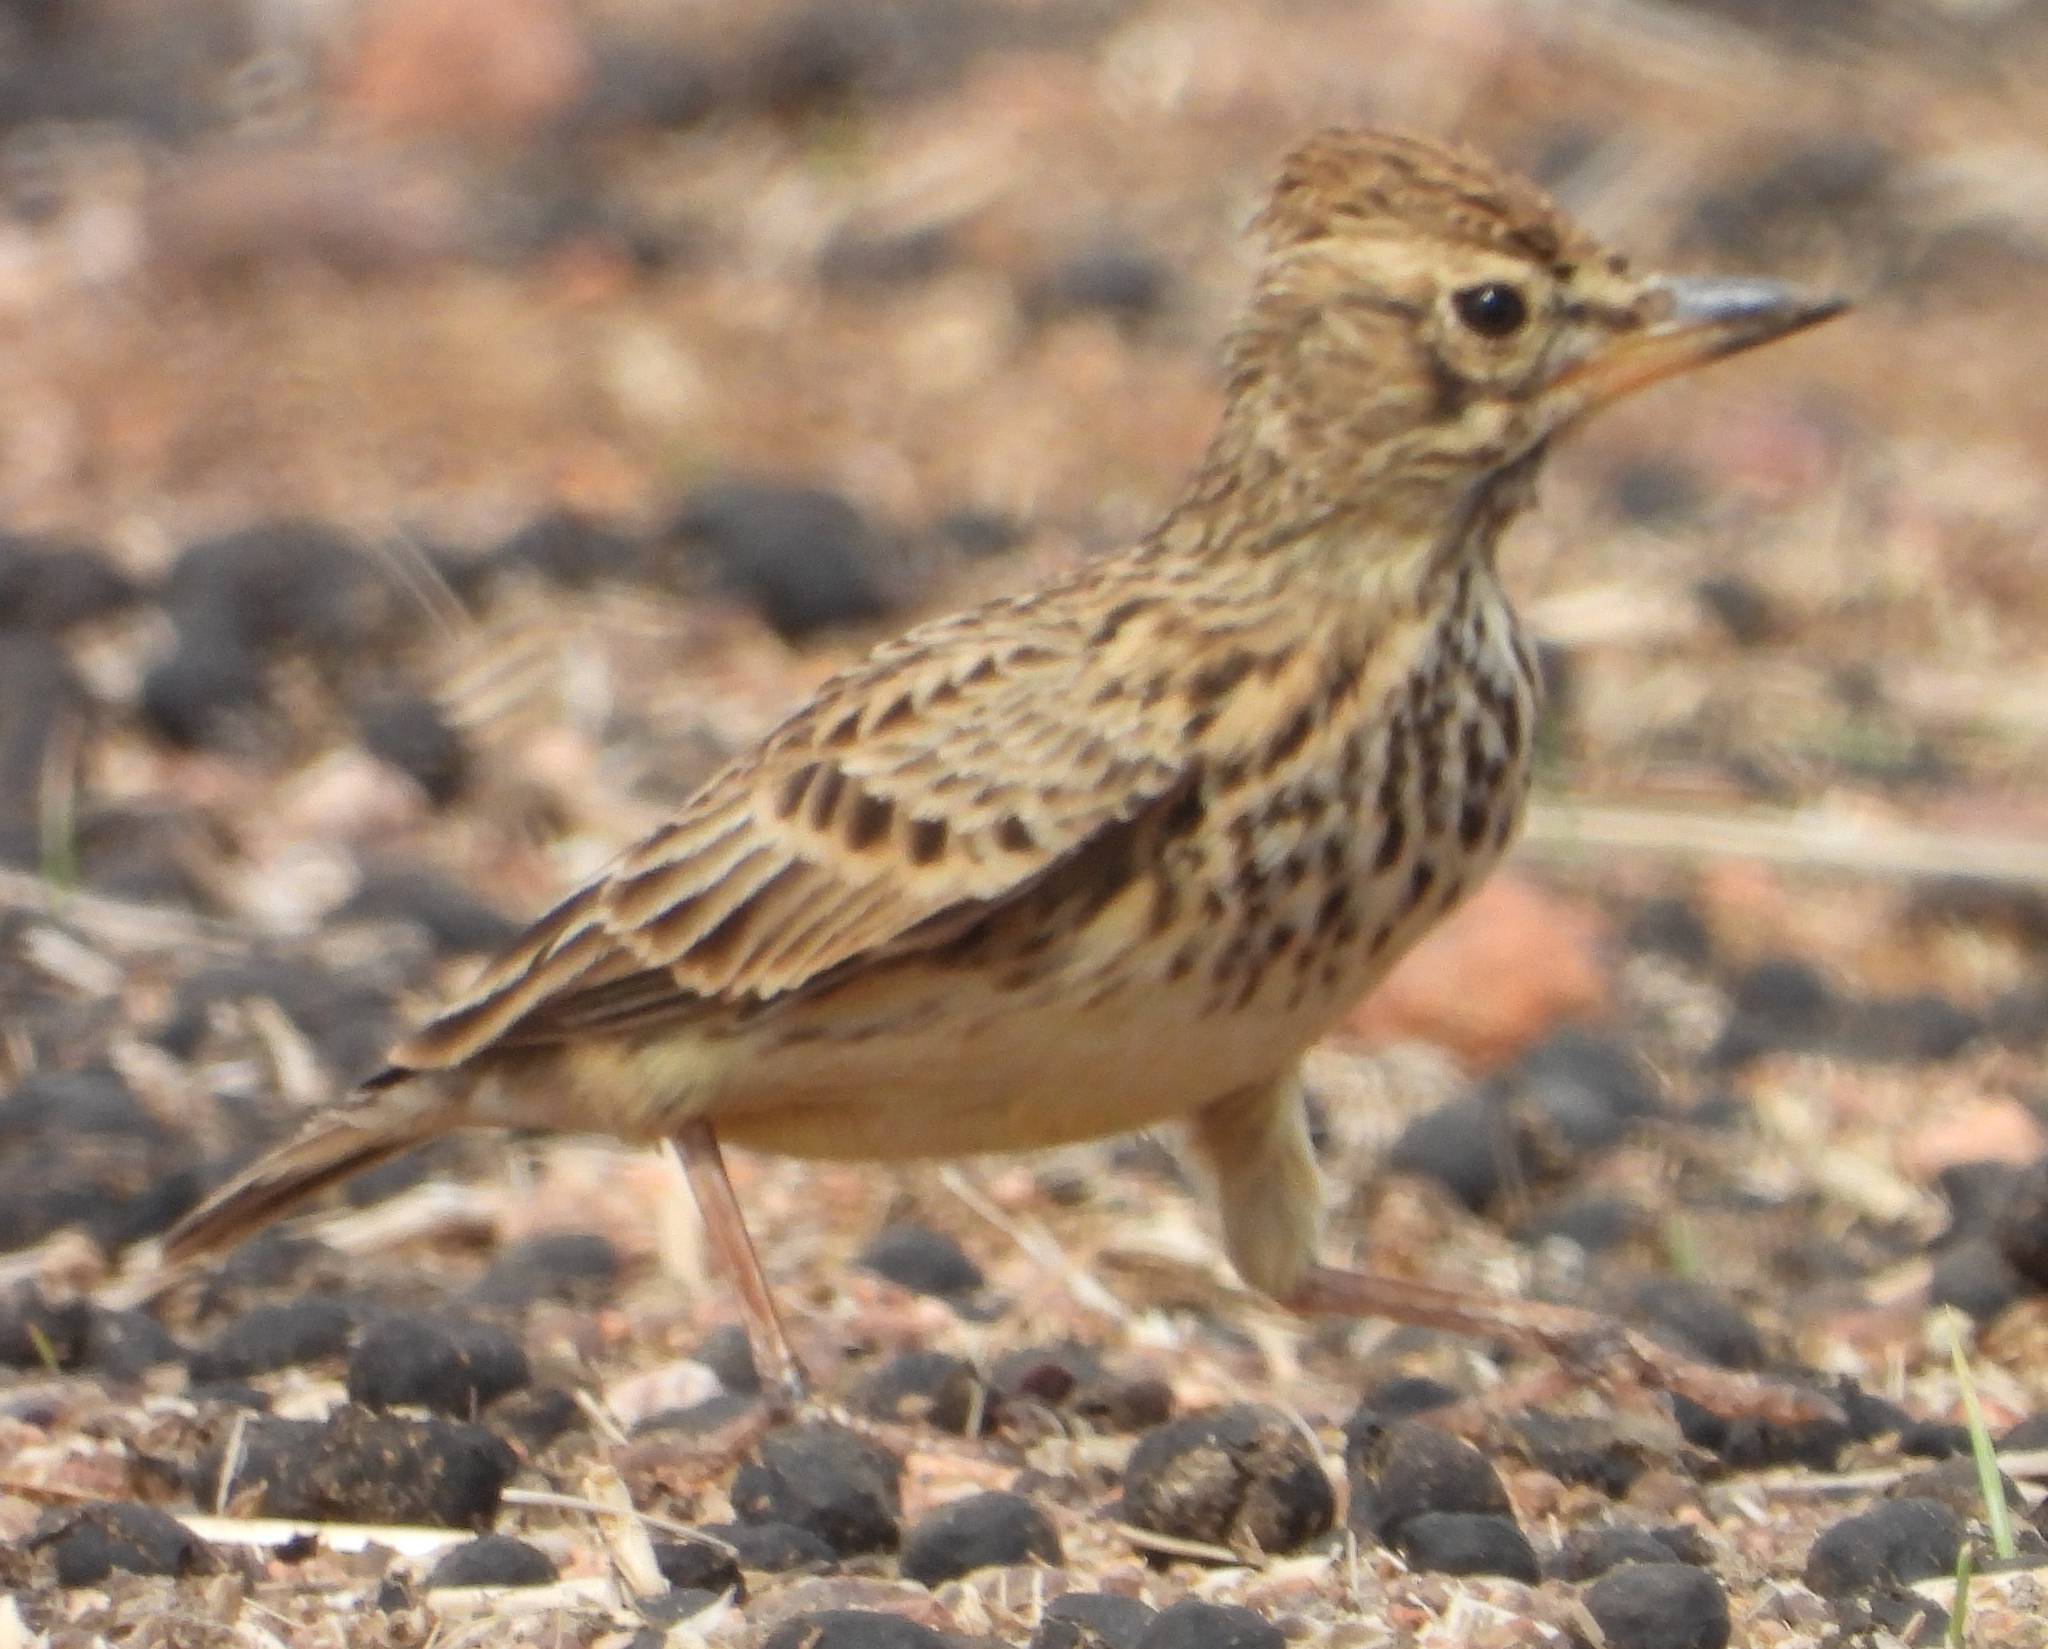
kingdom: Animalia
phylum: Chordata
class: Aves
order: Passeriformes
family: Alaudidae
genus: Galerida
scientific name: Galerida magnirostris
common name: Large-billed lark
